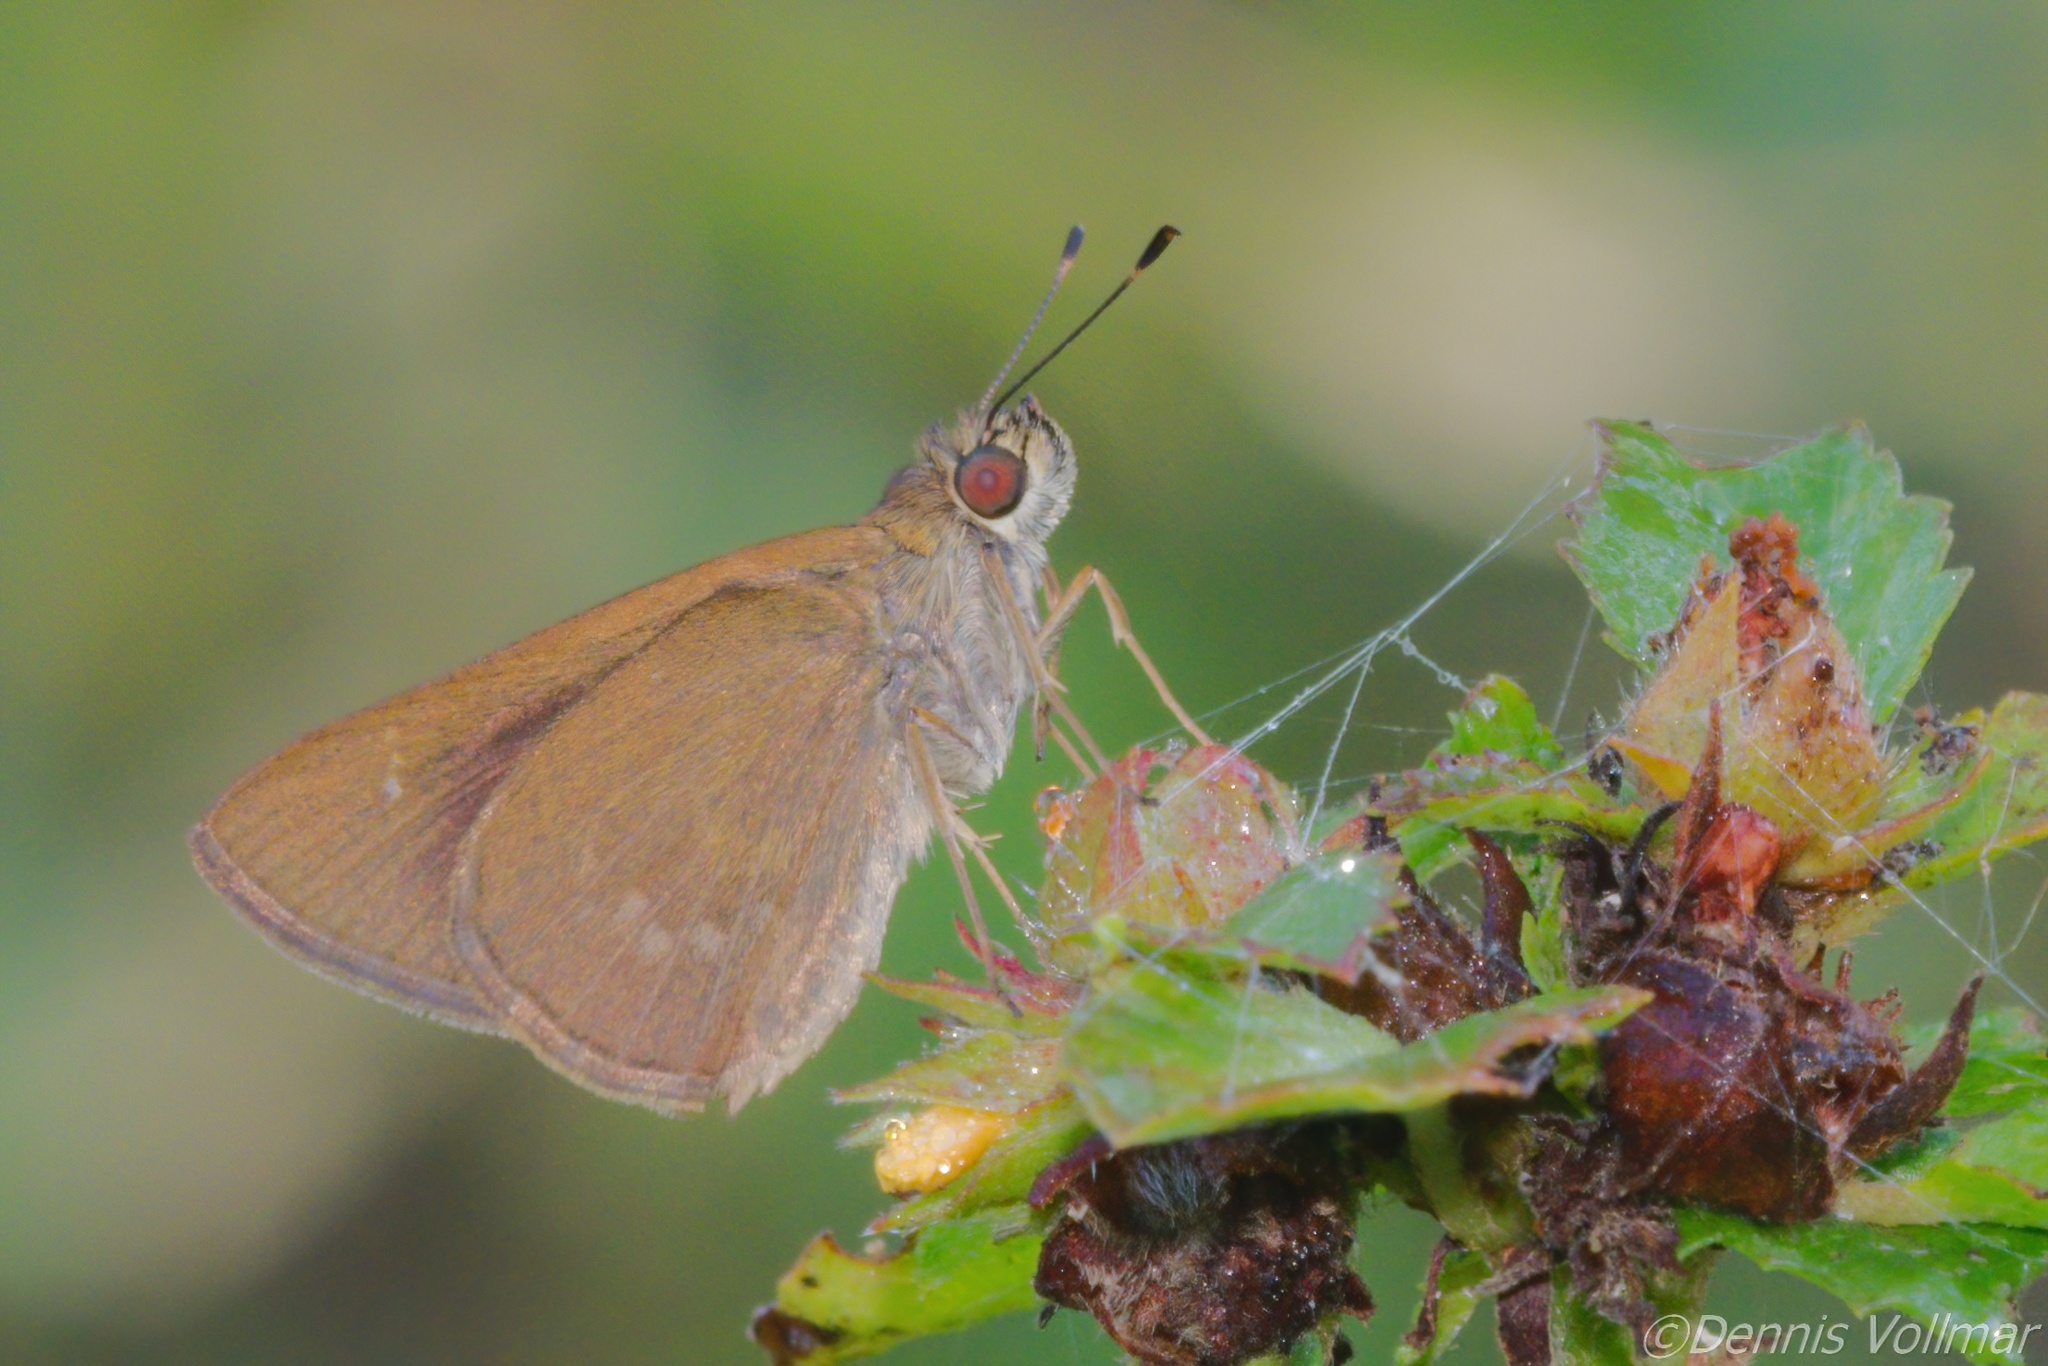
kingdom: Animalia
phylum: Arthropoda
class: Insecta
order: Lepidoptera
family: Hesperiidae
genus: Cymaenes
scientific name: Cymaenes tripunctus
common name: Dingy dotted skipper
